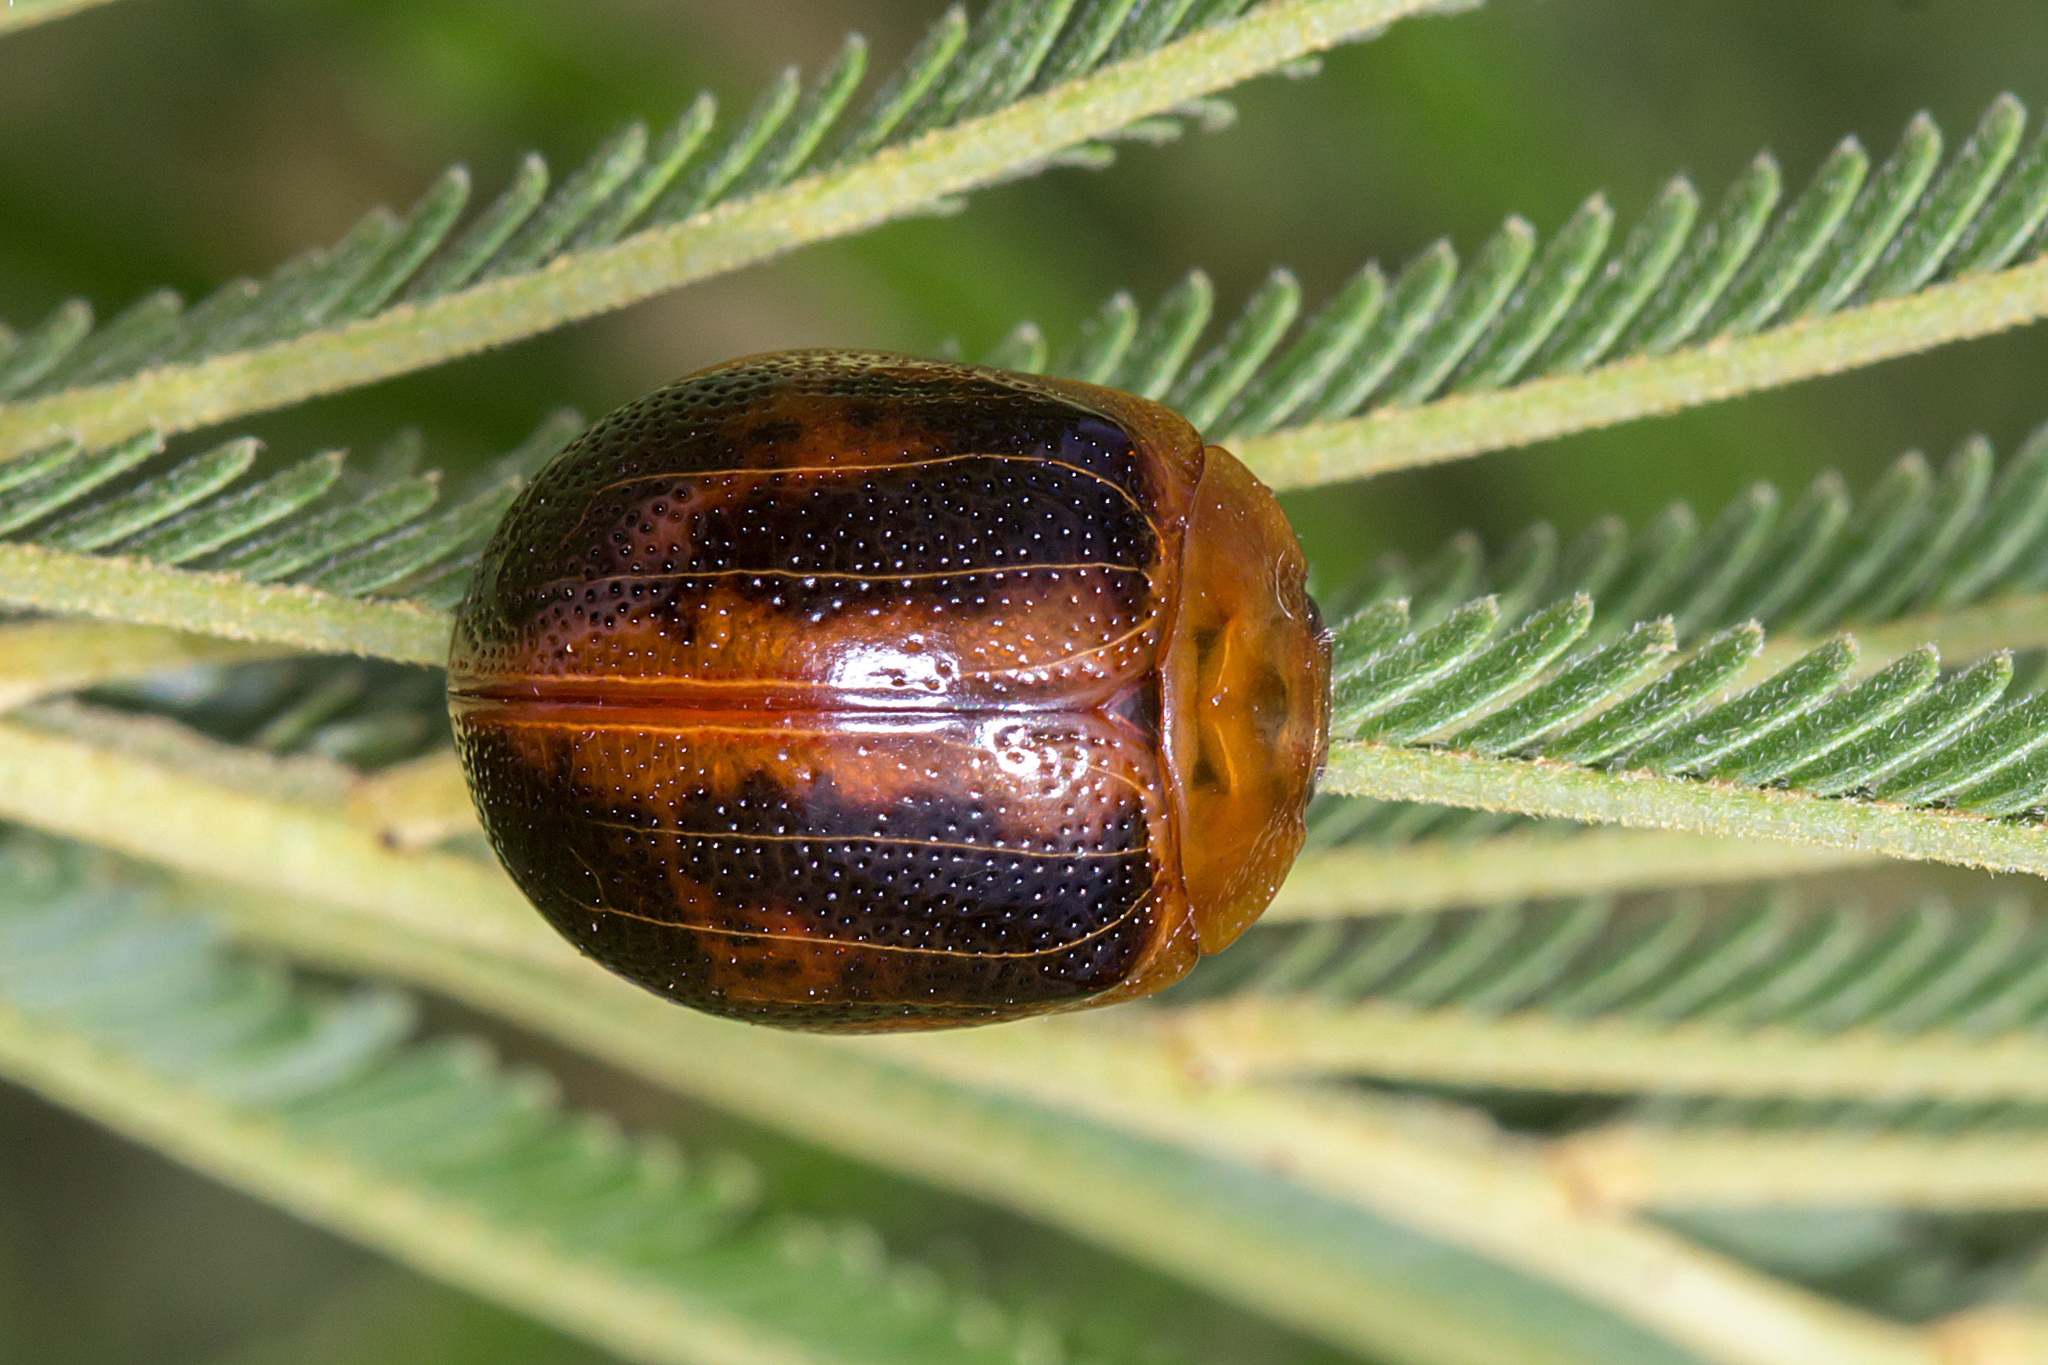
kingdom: Animalia
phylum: Arthropoda
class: Insecta
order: Coleoptera
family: Chrysomelidae
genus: Dicranosterna
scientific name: Dicranosterna
